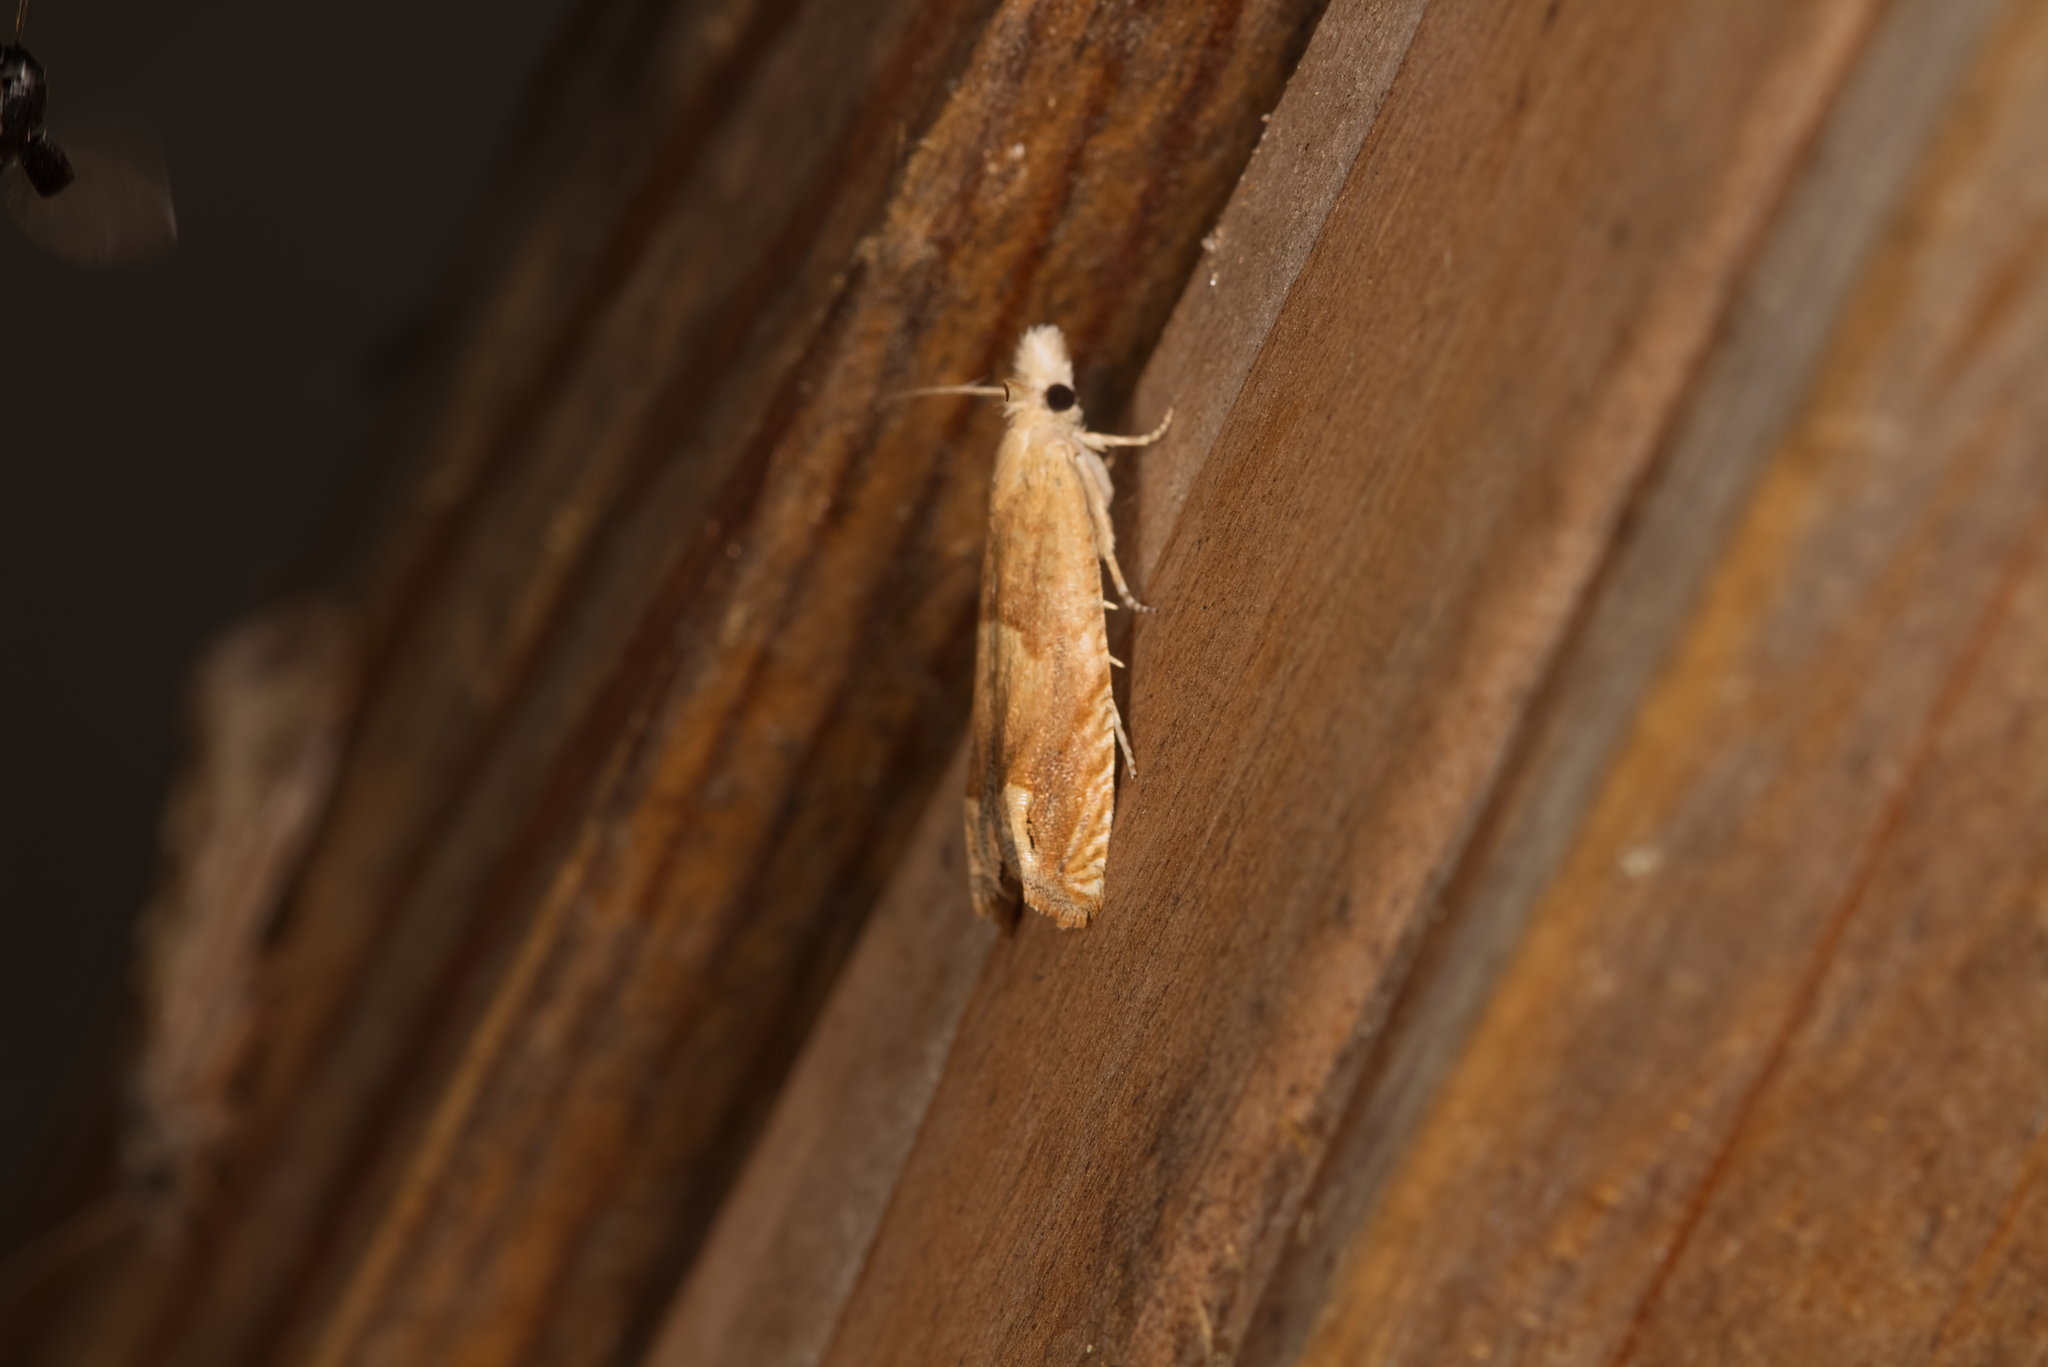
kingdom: Animalia
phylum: Arthropoda
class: Insecta
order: Lepidoptera
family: Tortricidae
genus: Eucosma
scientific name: Eucosma conterminana
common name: Pale lettuce bell
